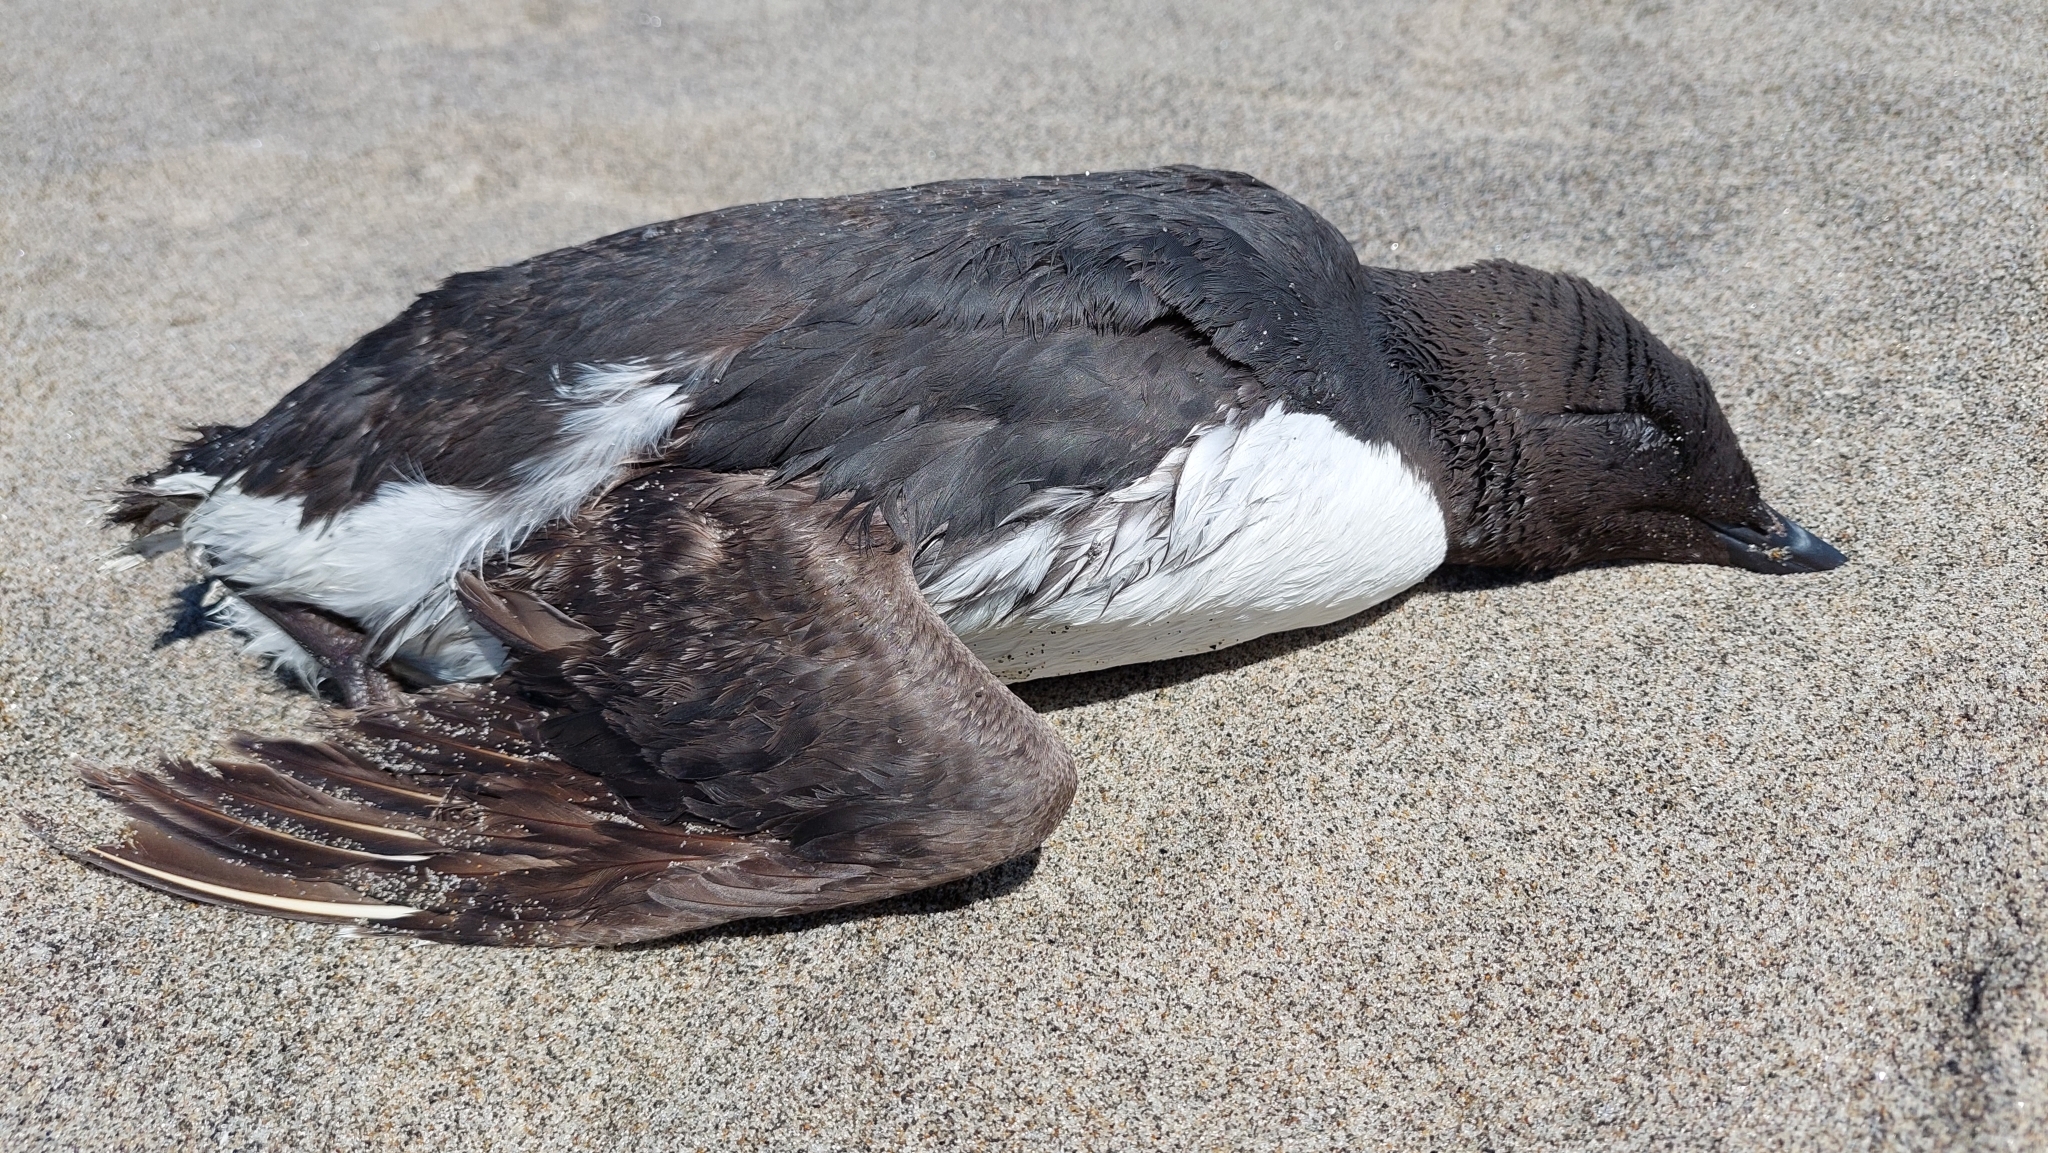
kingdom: Animalia
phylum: Chordata
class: Aves
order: Charadriiformes
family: Alcidae
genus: Uria
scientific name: Uria aalge
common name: Common murre
